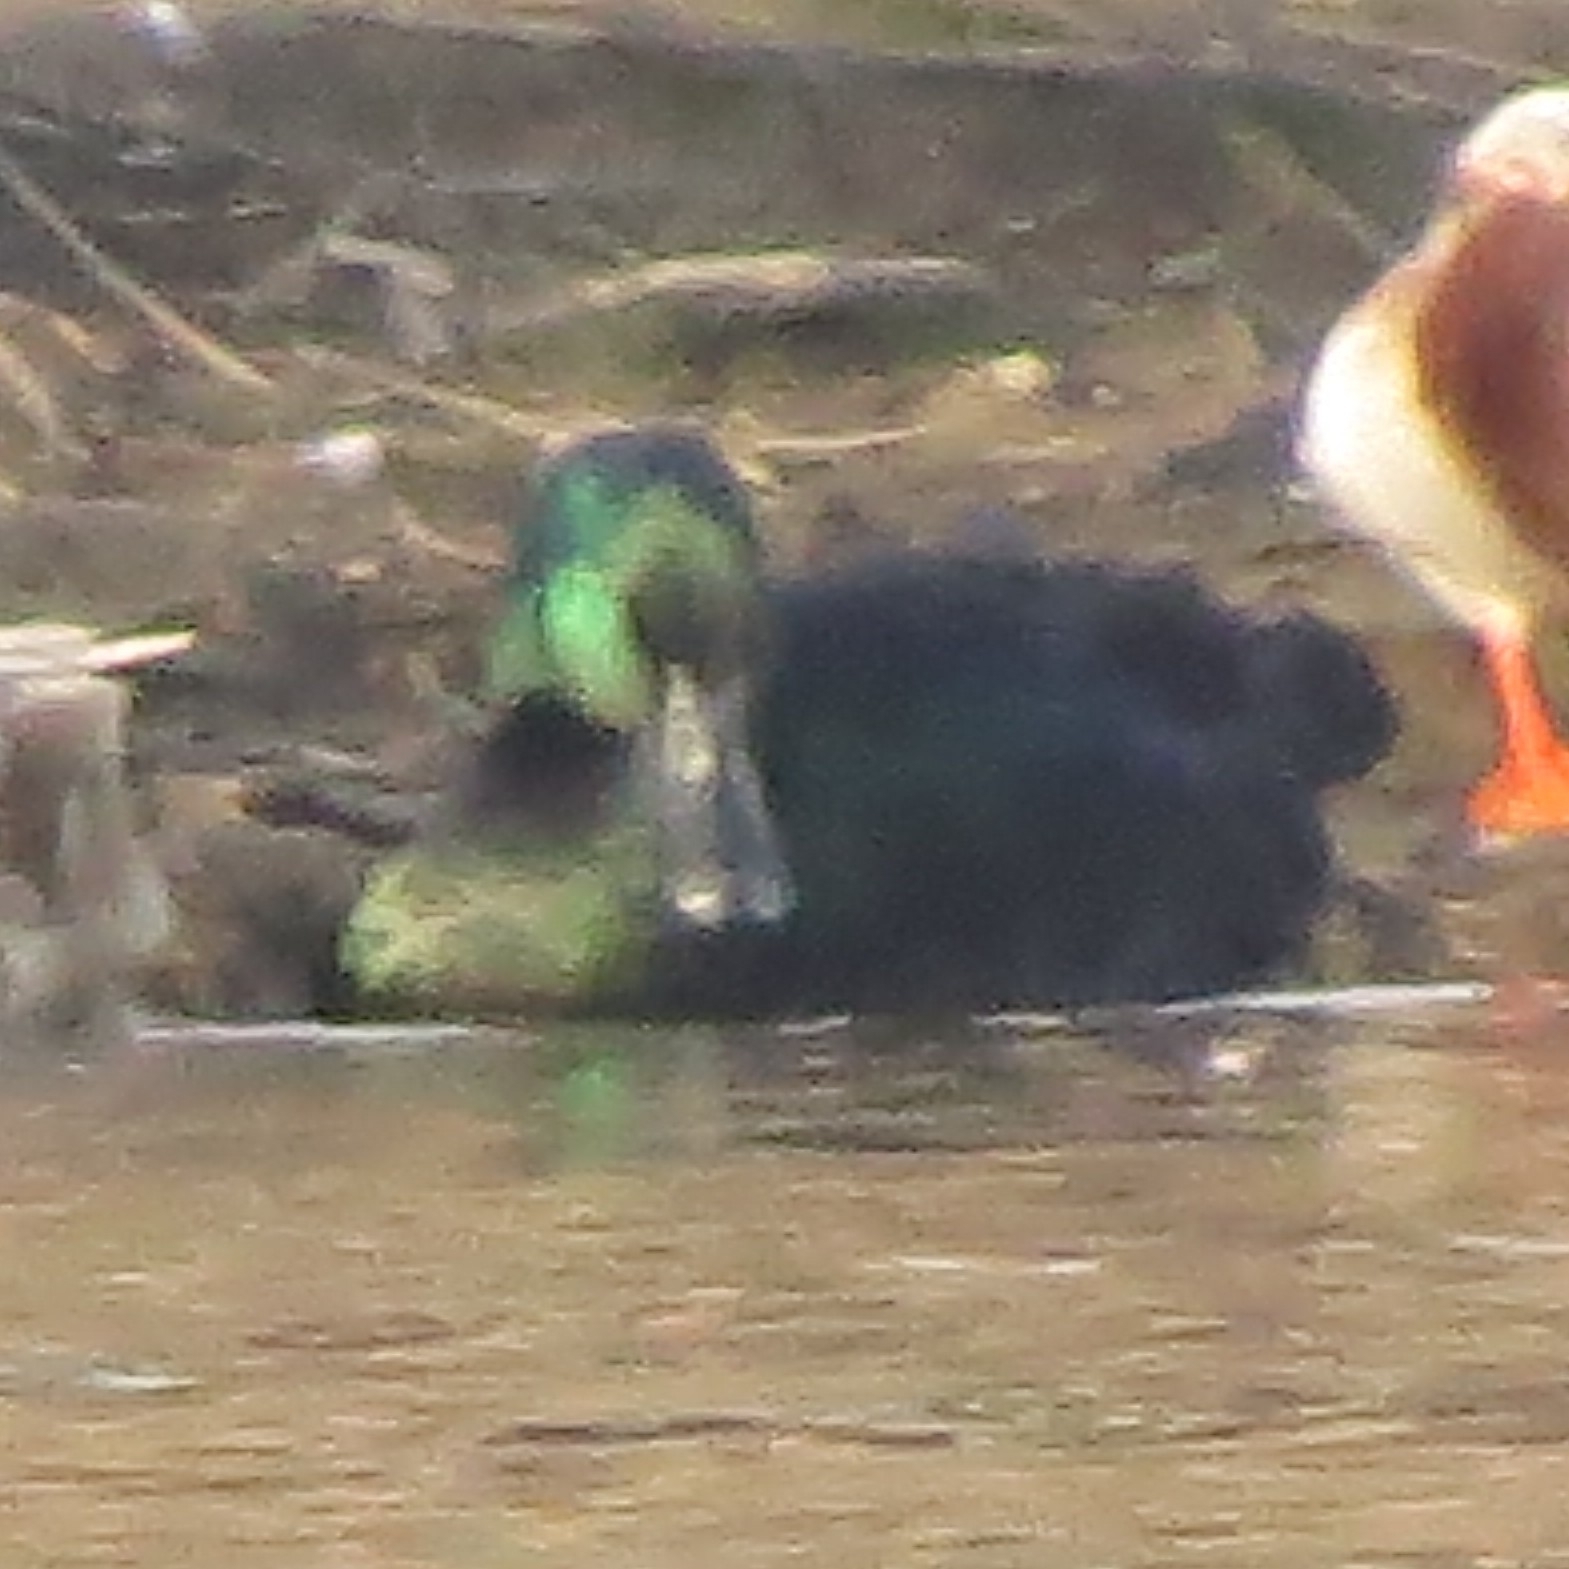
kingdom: Animalia
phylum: Chordata
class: Aves
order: Anseriformes
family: Anatidae
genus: Anas
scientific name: Anas platyrhynchos
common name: Mallard
